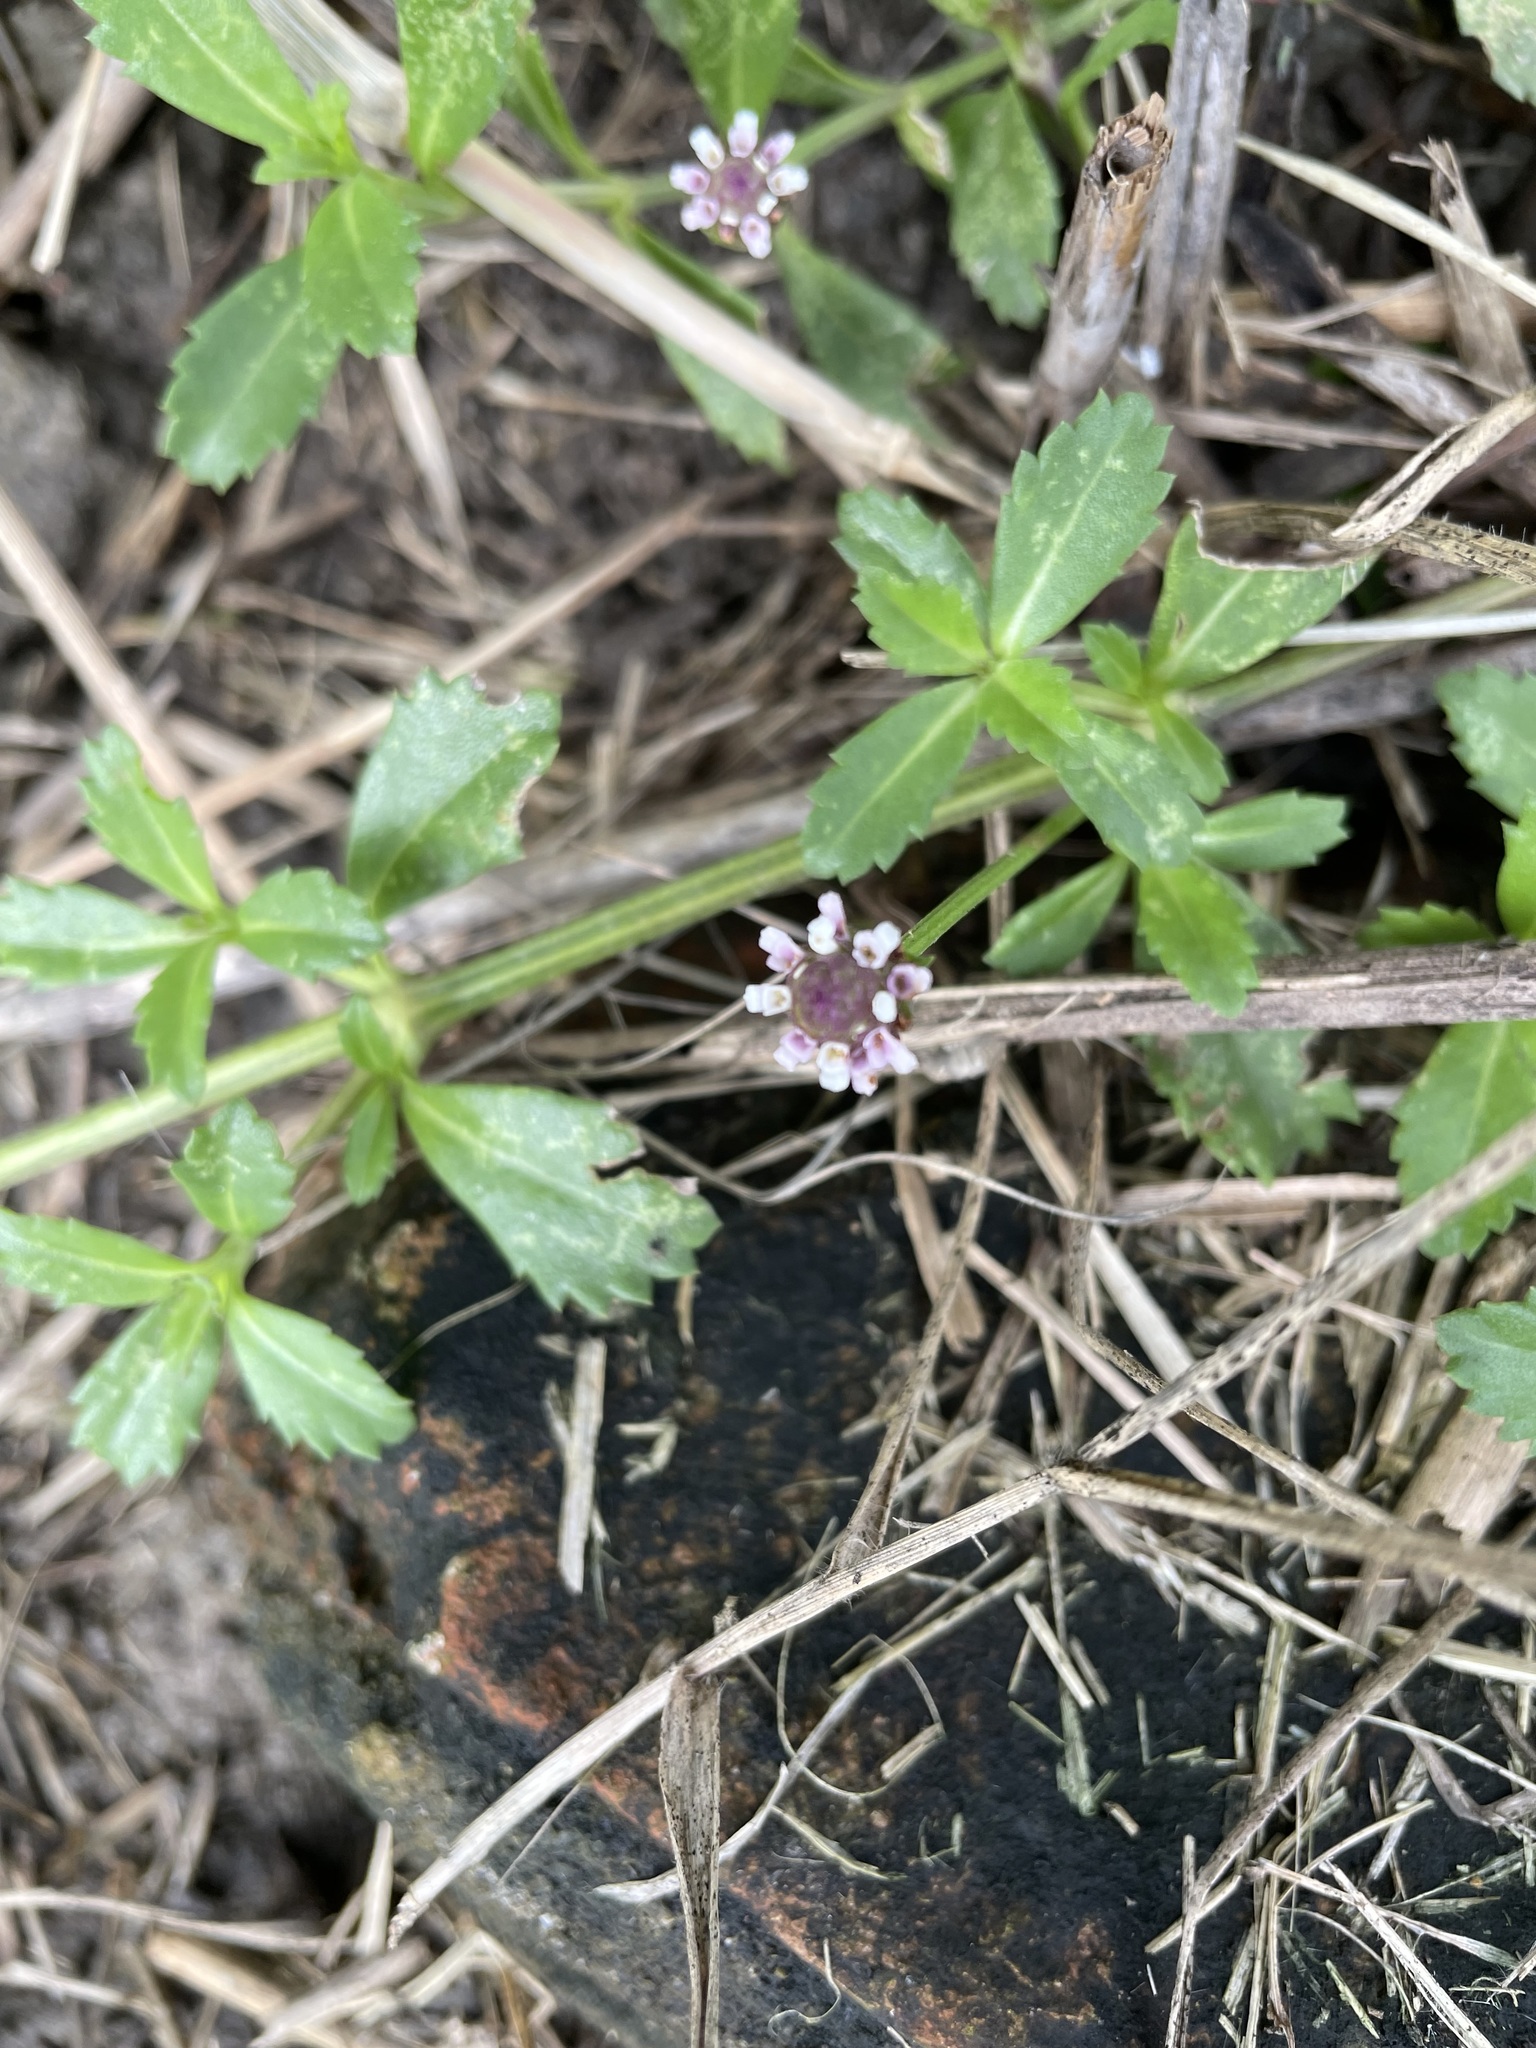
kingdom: Plantae
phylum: Tracheophyta
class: Magnoliopsida
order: Lamiales
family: Verbenaceae
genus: Phyla
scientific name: Phyla nodiflora
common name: Frogfruit
